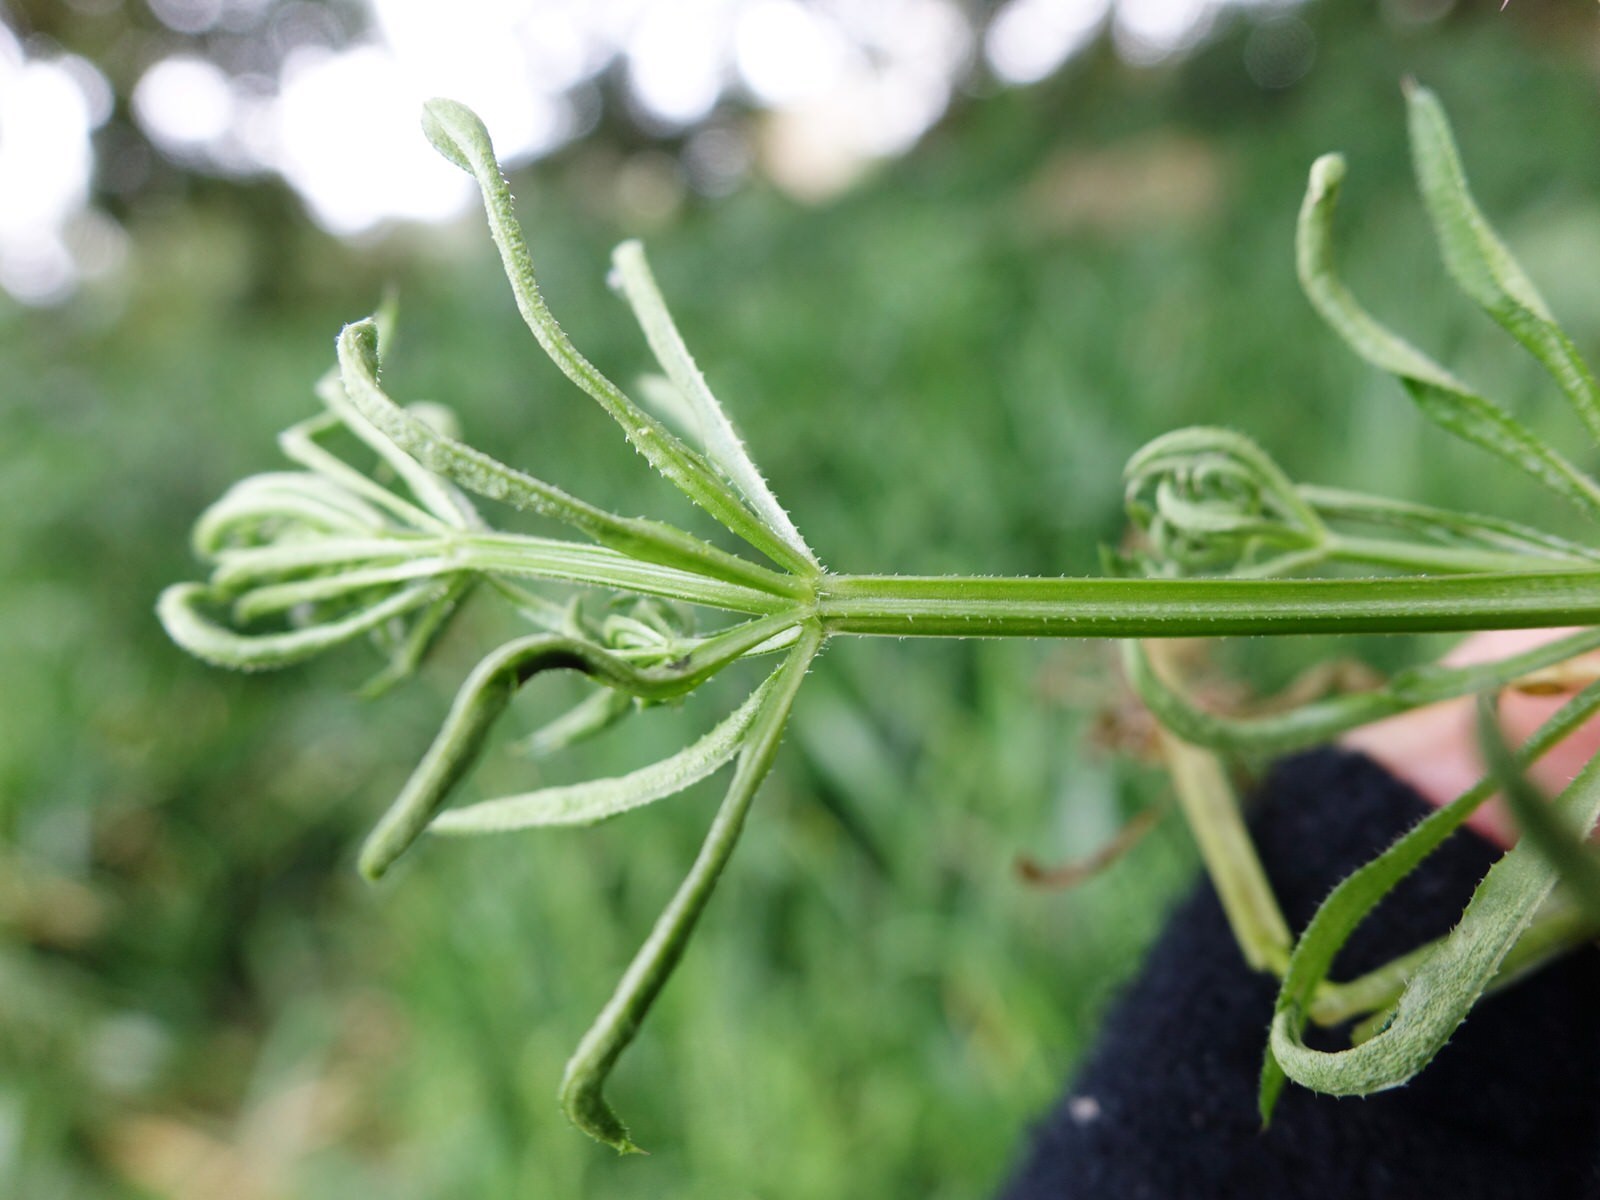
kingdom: Plantae
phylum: Tracheophyta
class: Magnoliopsida
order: Gentianales
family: Rubiaceae
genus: Galium
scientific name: Galium aparine
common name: Cleavers
